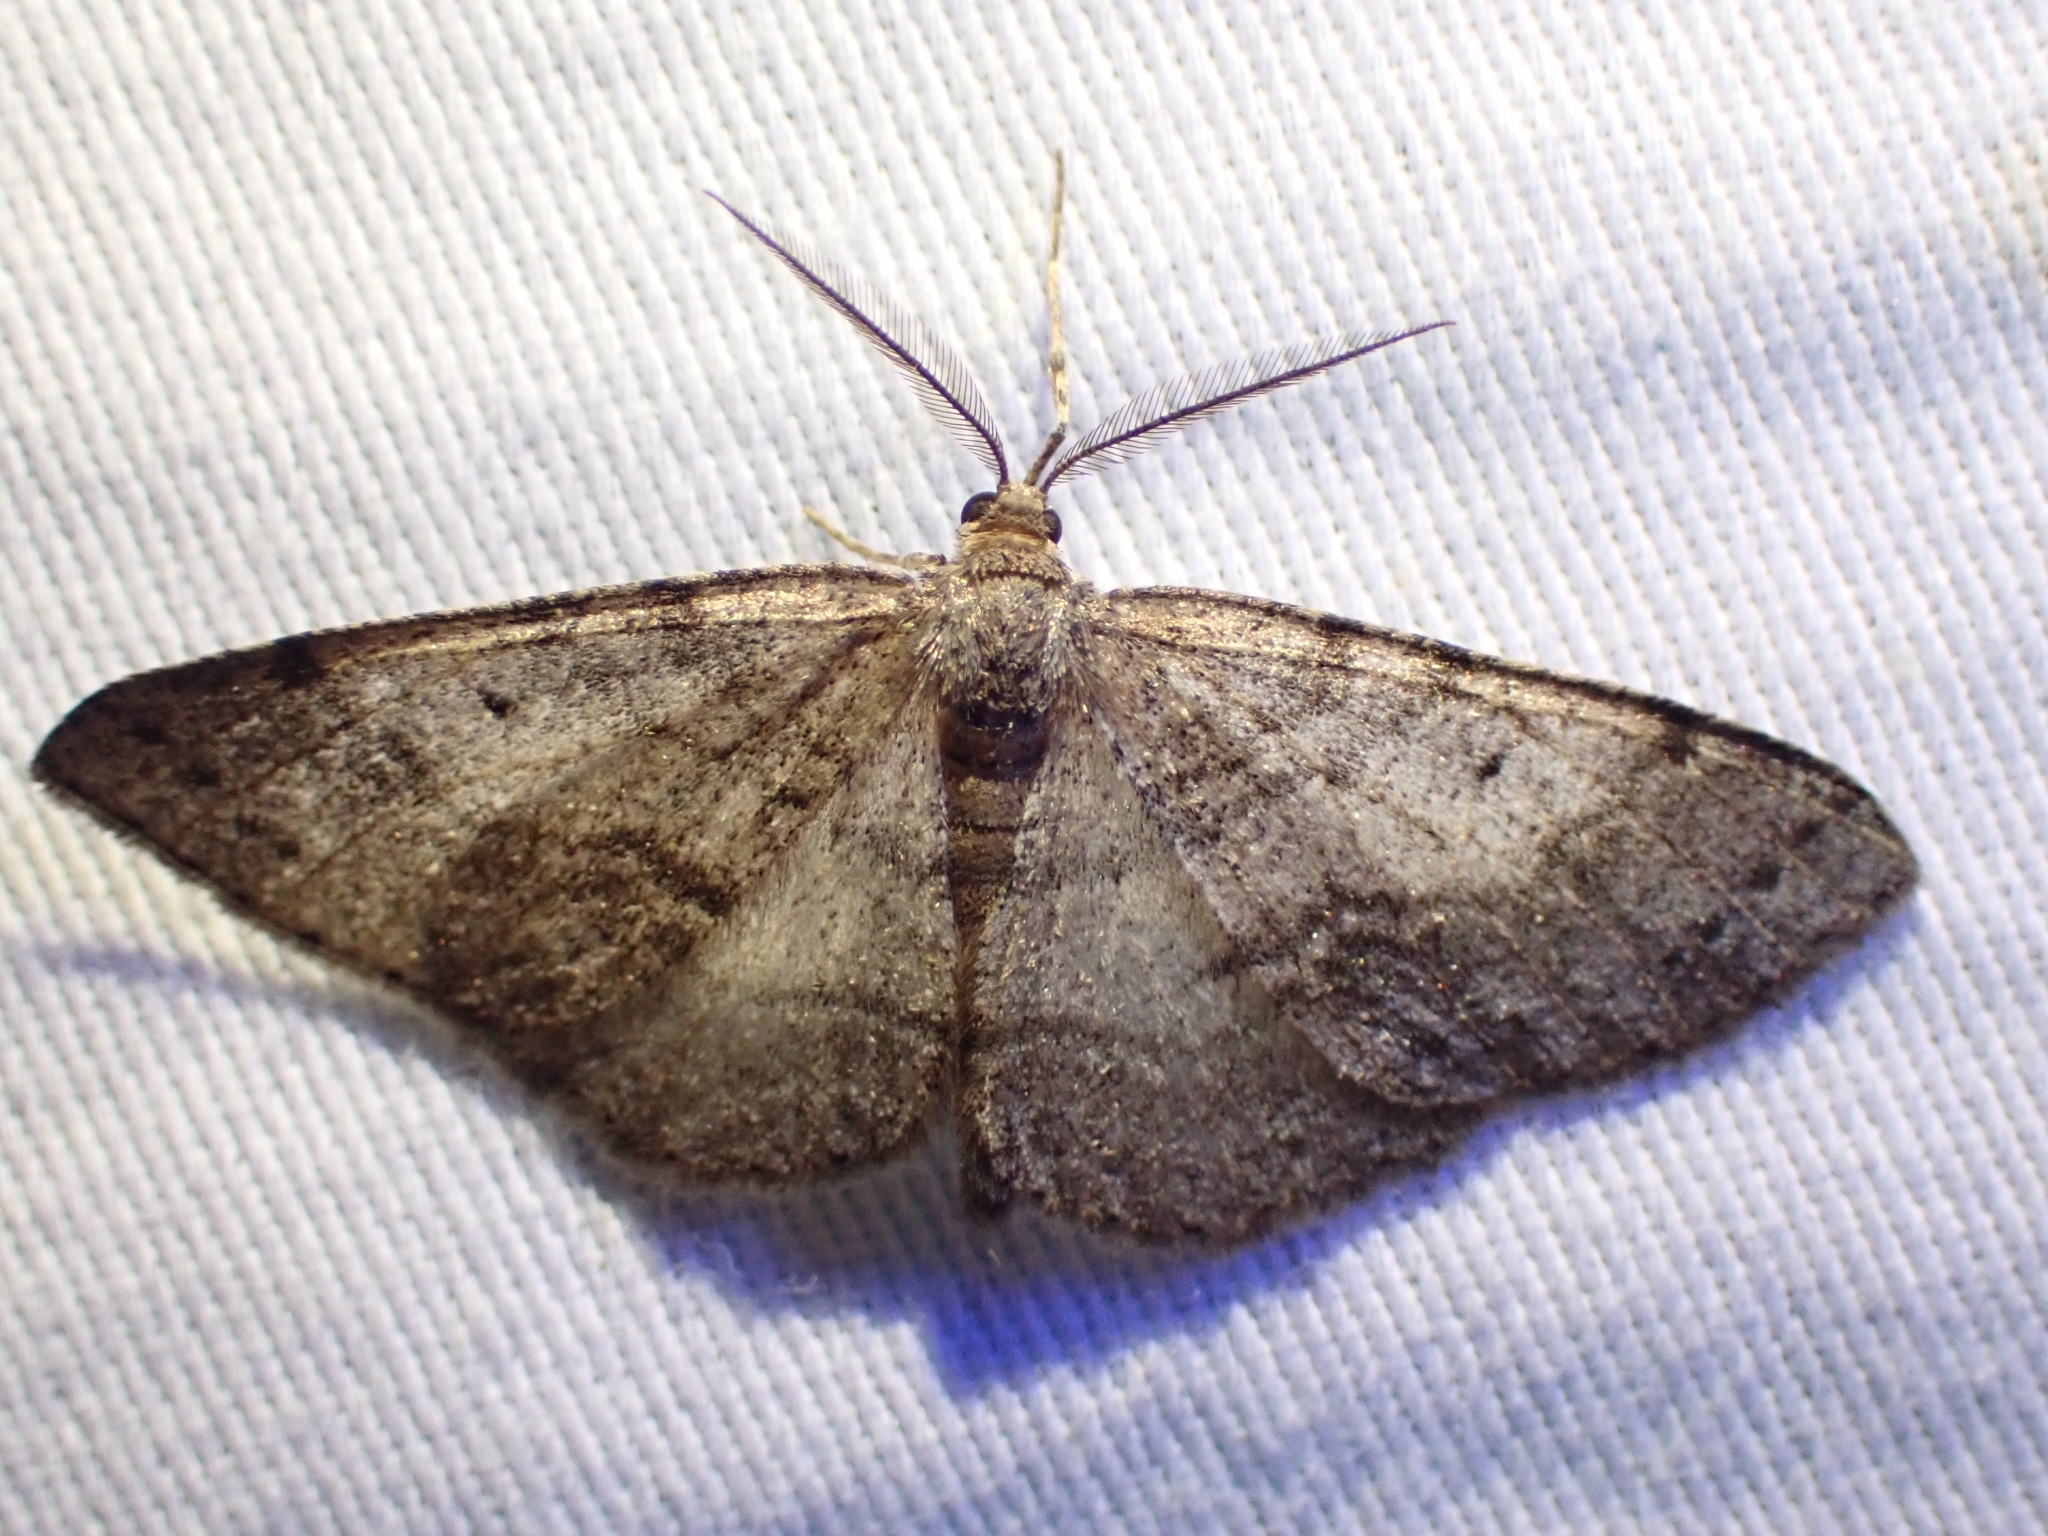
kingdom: Animalia
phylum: Arthropoda
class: Insecta
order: Lepidoptera
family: Geometridae
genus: Eumacaria
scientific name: Eumacaria madopata
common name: Brown-bordered geometer
